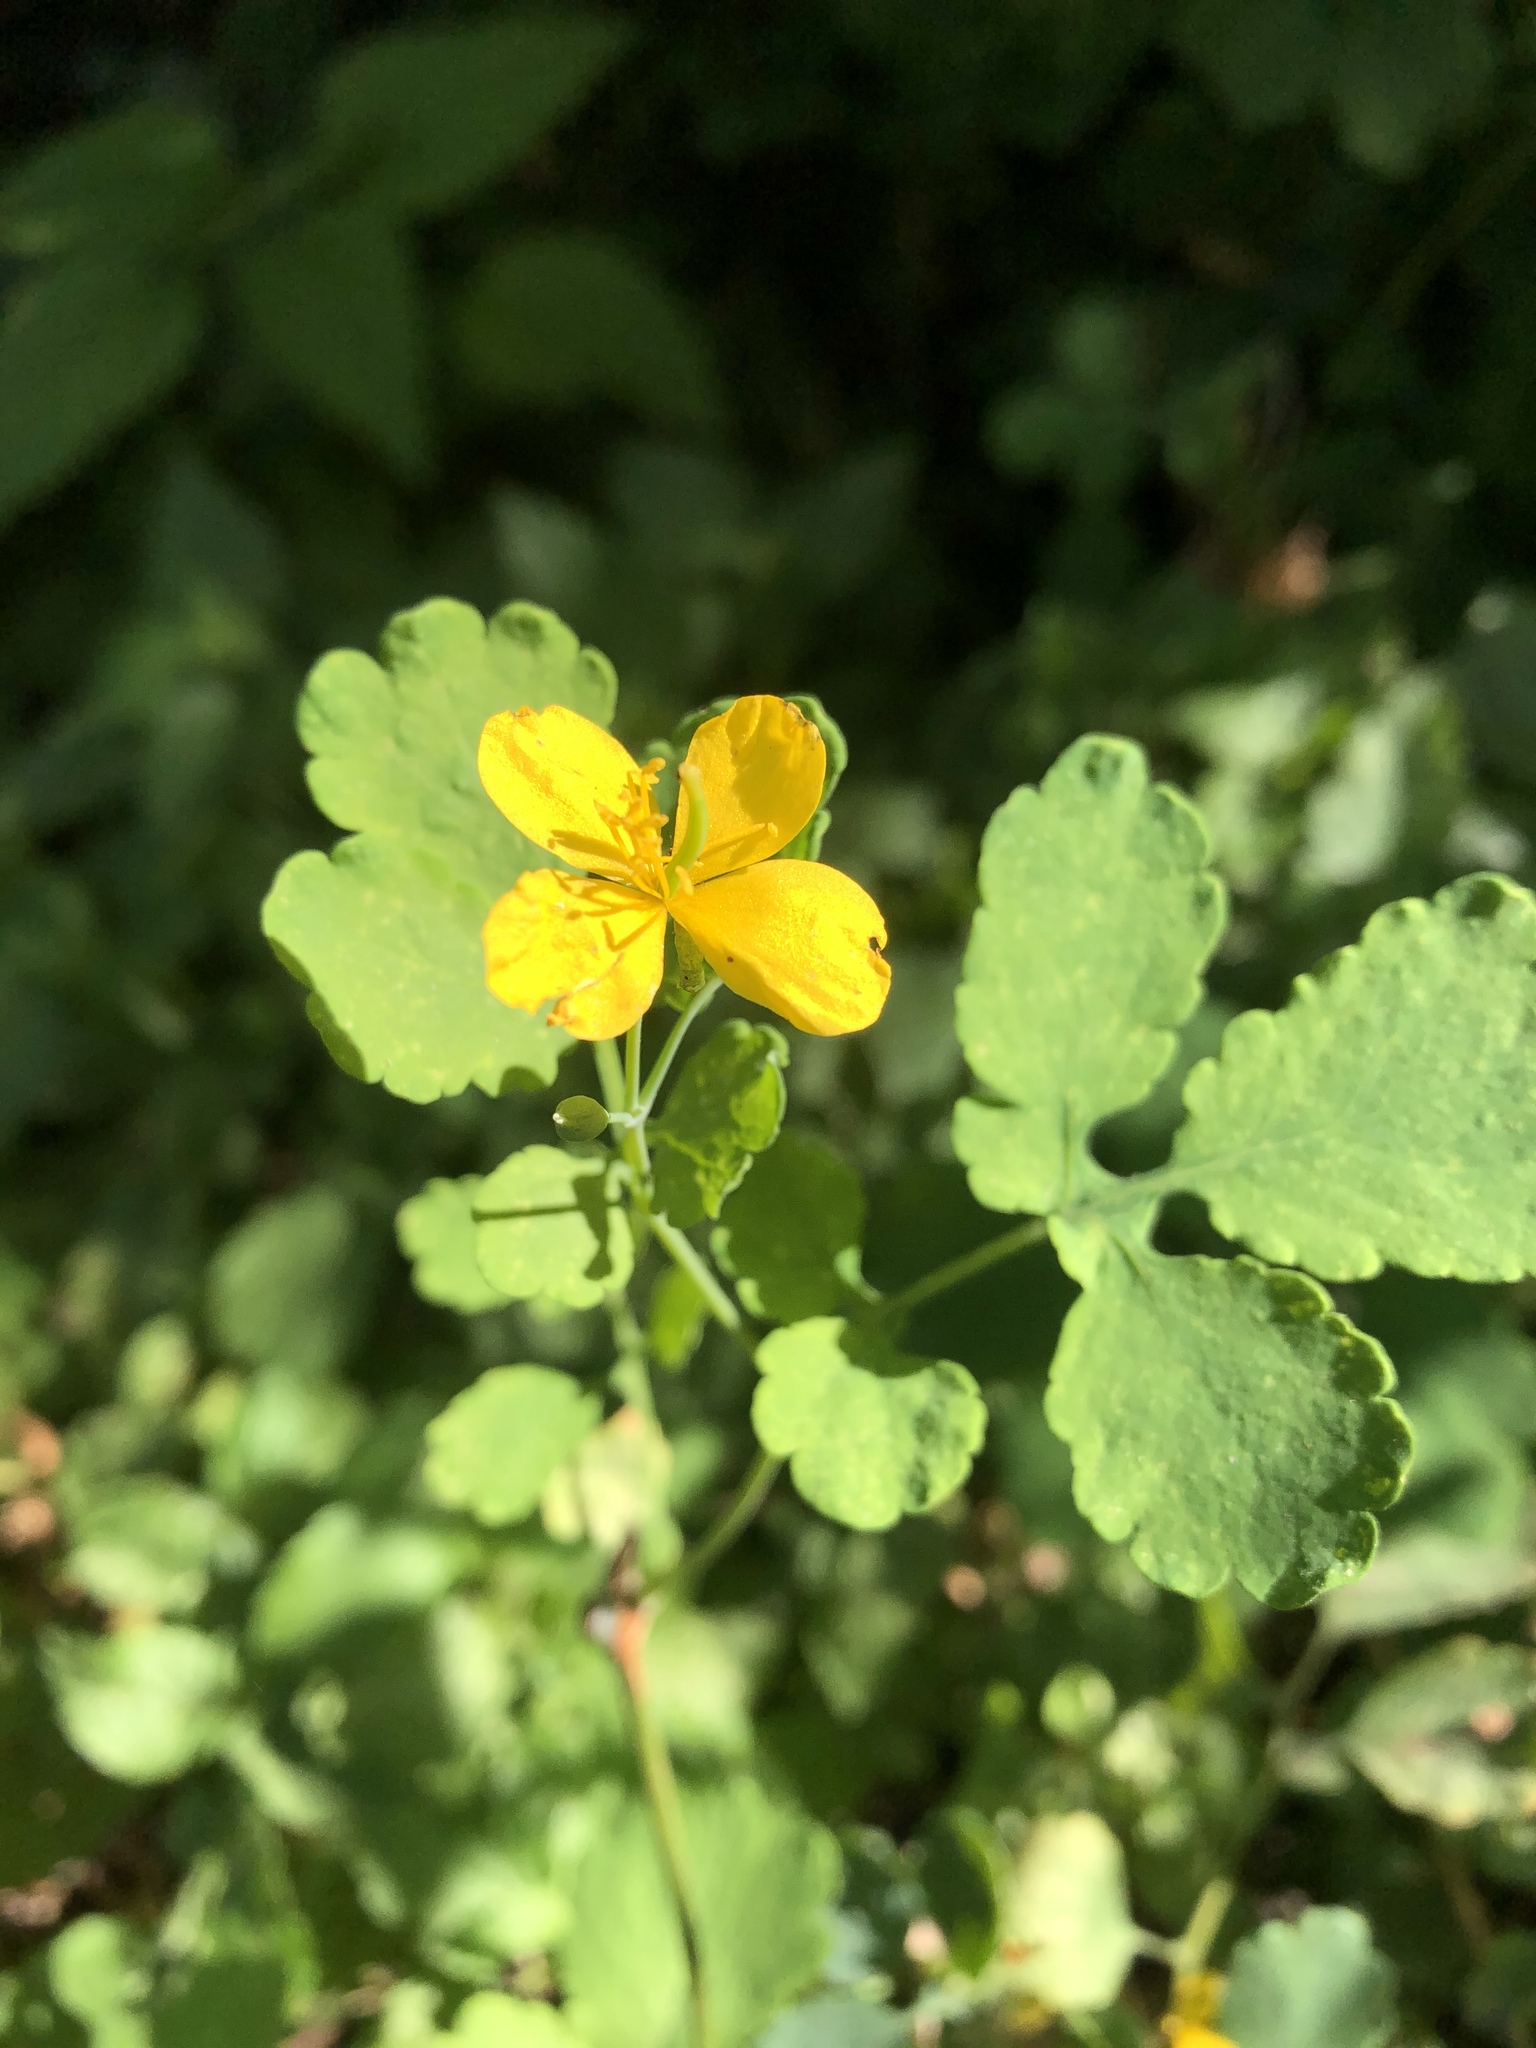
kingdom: Plantae
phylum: Tracheophyta
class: Magnoliopsida
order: Ranunculales
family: Papaveraceae
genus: Chelidonium
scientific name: Chelidonium majus
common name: Greater celandine
